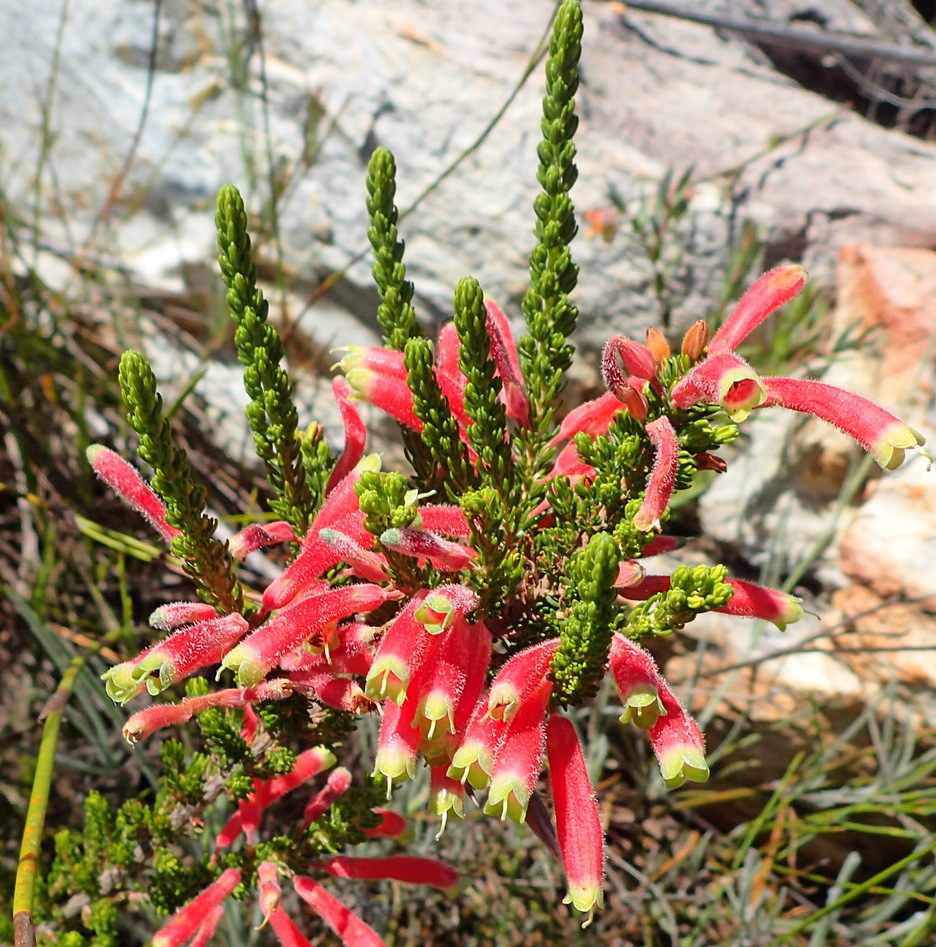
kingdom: Plantae
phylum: Tracheophyta
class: Magnoliopsida
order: Ericales
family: Ericaceae
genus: Erica
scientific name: Erica densifolia
